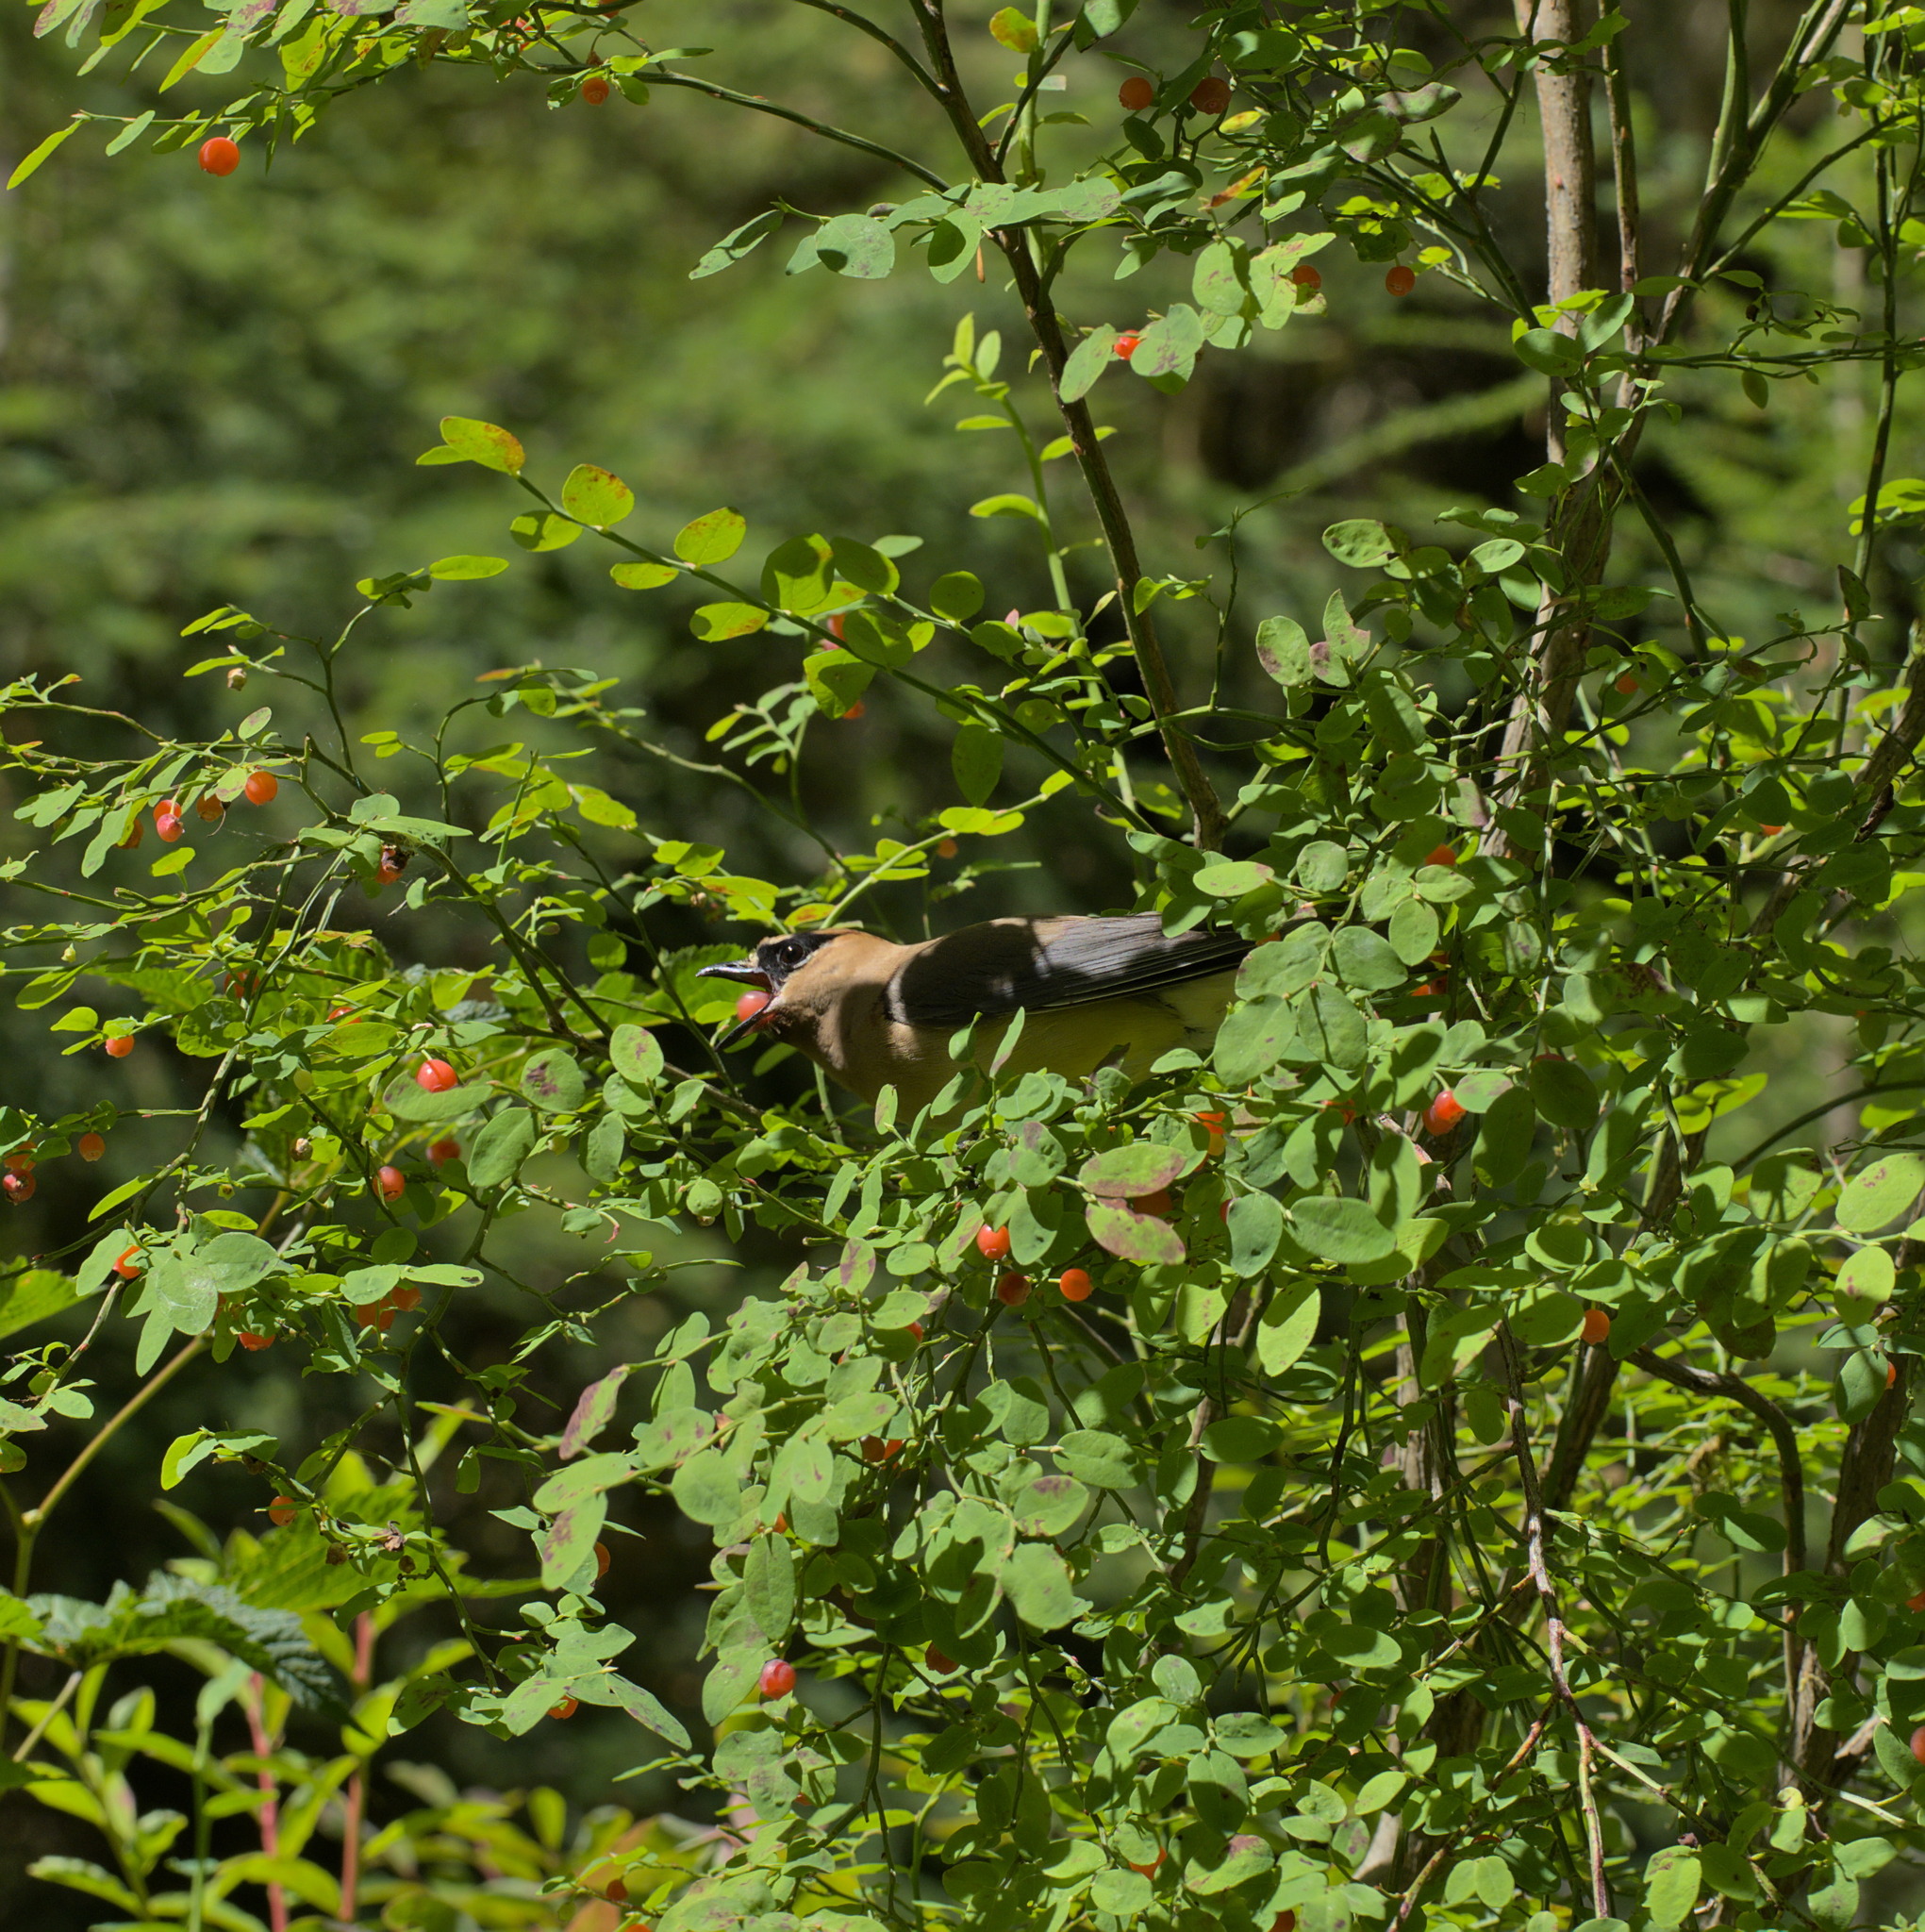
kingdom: Animalia
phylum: Chordata
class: Aves
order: Passeriformes
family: Bombycillidae
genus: Bombycilla
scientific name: Bombycilla cedrorum
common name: Cedar waxwing
